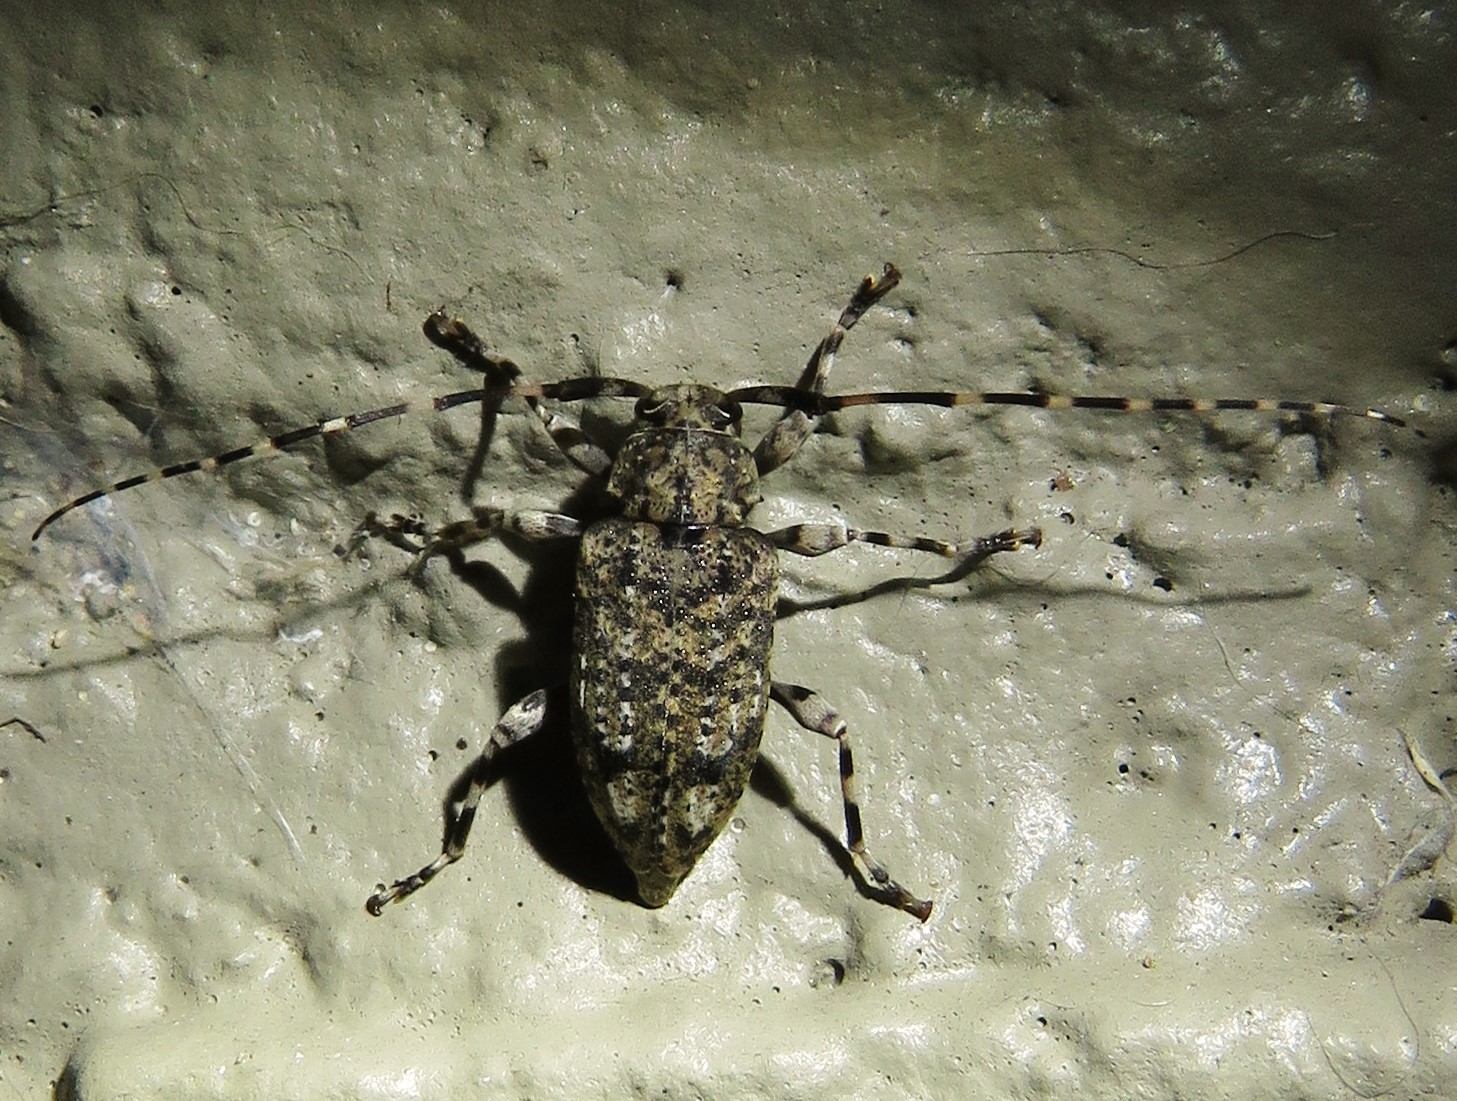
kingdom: Animalia
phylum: Arthropoda
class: Insecta
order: Coleoptera
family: Cerambycidae
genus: Astyleiopus
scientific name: Astyleiopus variegatus
